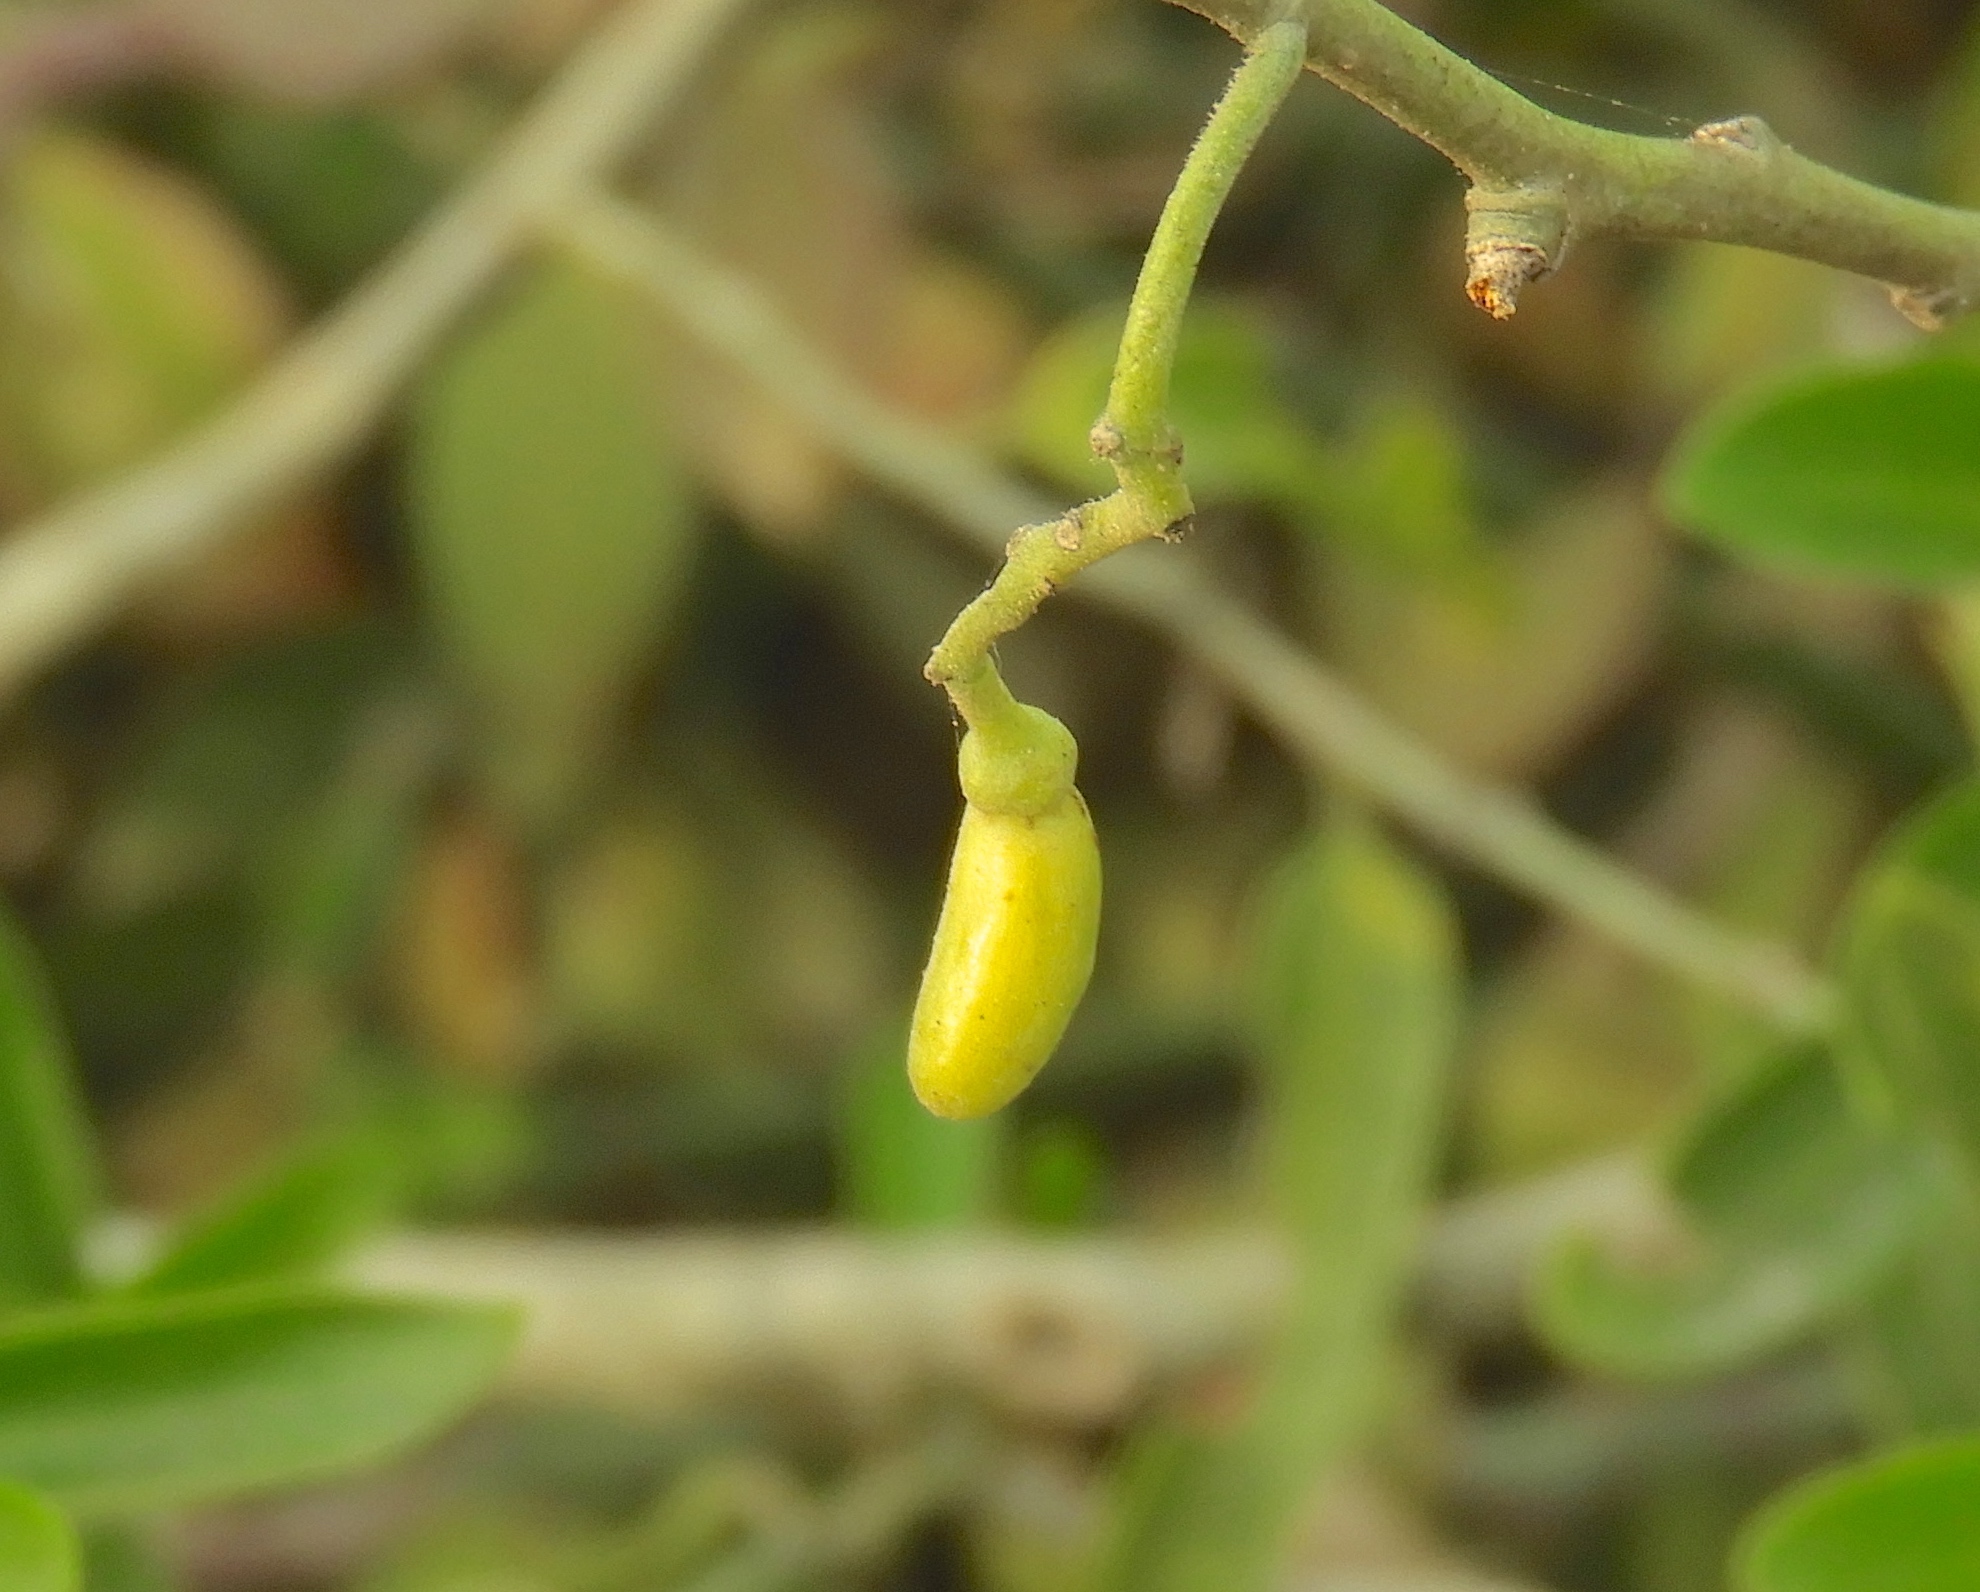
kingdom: Plantae
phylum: Tracheophyta
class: Magnoliopsida
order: Gentianales
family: Apocynaceae
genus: Vallesia
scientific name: Vallesia glabra
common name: Pearlberry
